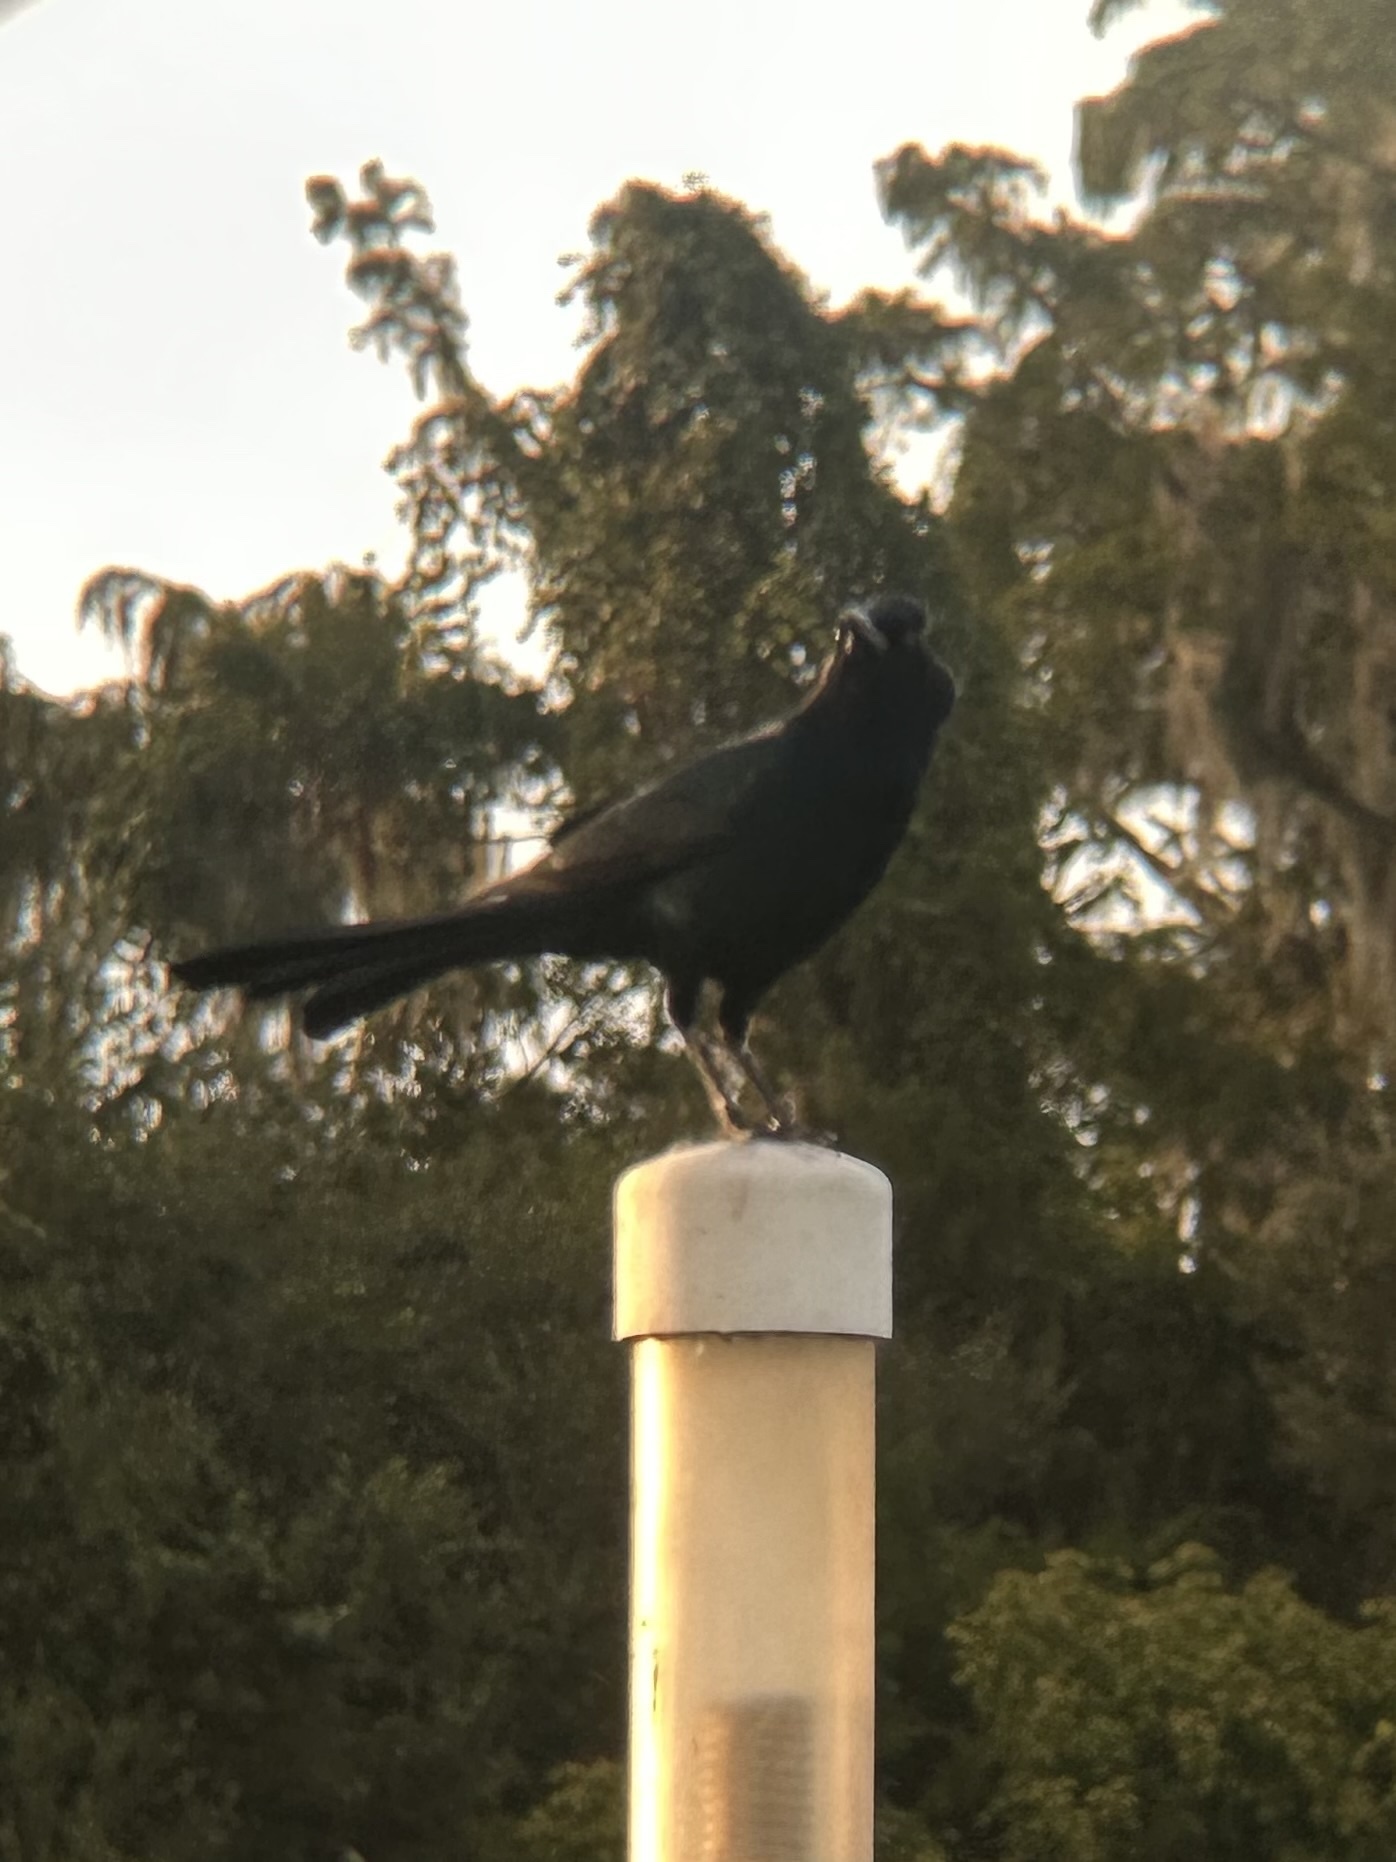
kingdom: Animalia
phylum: Chordata
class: Aves
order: Passeriformes
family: Icteridae
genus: Quiscalus
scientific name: Quiscalus major
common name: Boat-tailed grackle
